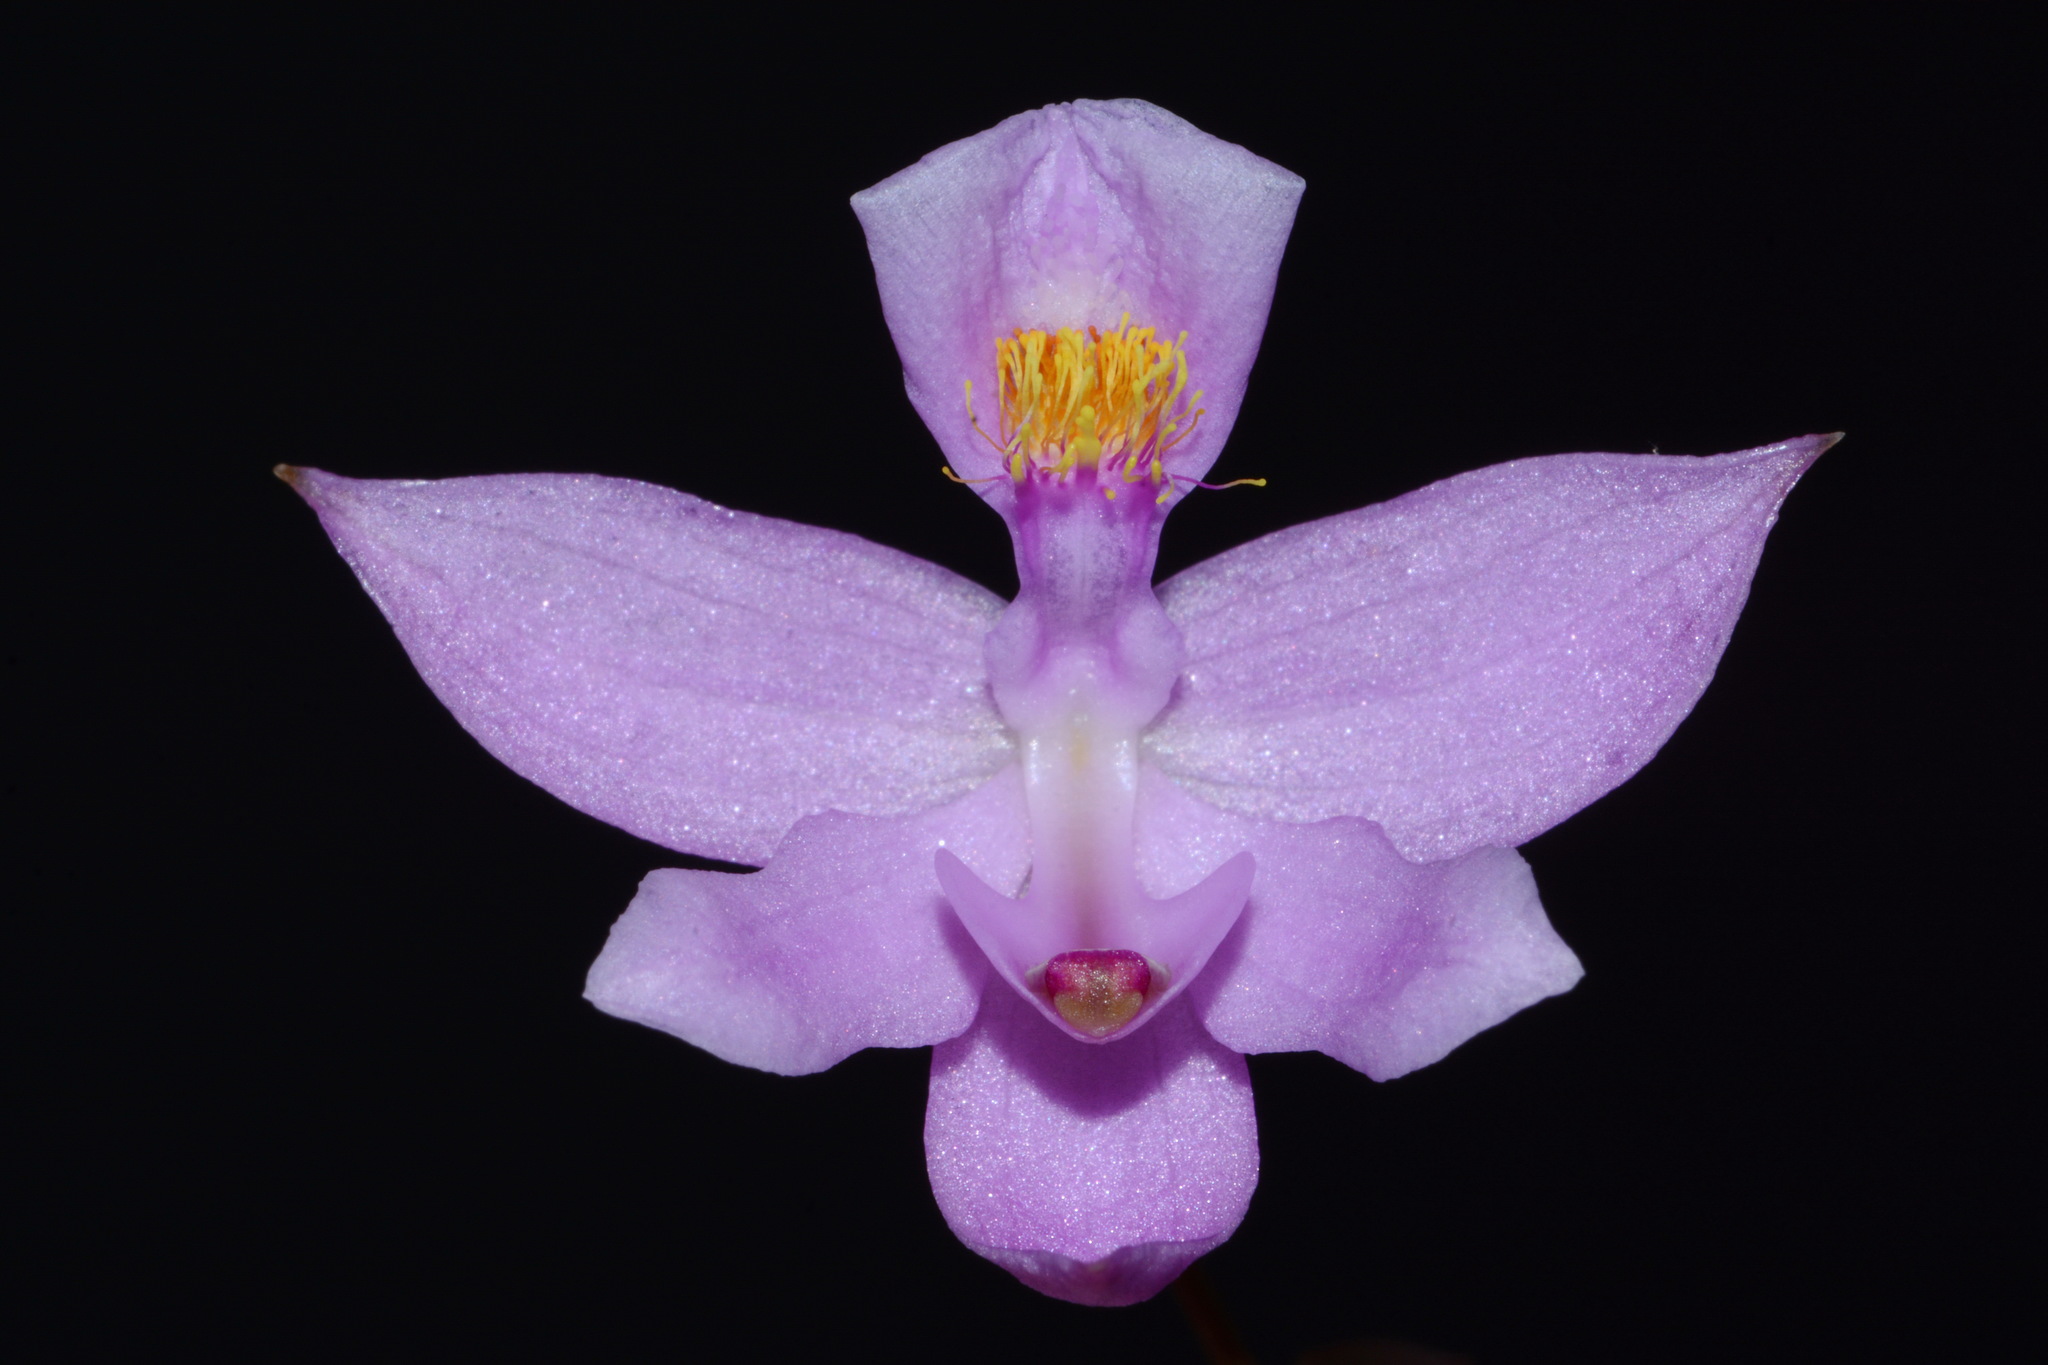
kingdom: Plantae
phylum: Tracheophyta
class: Liliopsida
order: Asparagales
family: Orchidaceae
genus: Calopogon
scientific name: Calopogon barbatus
